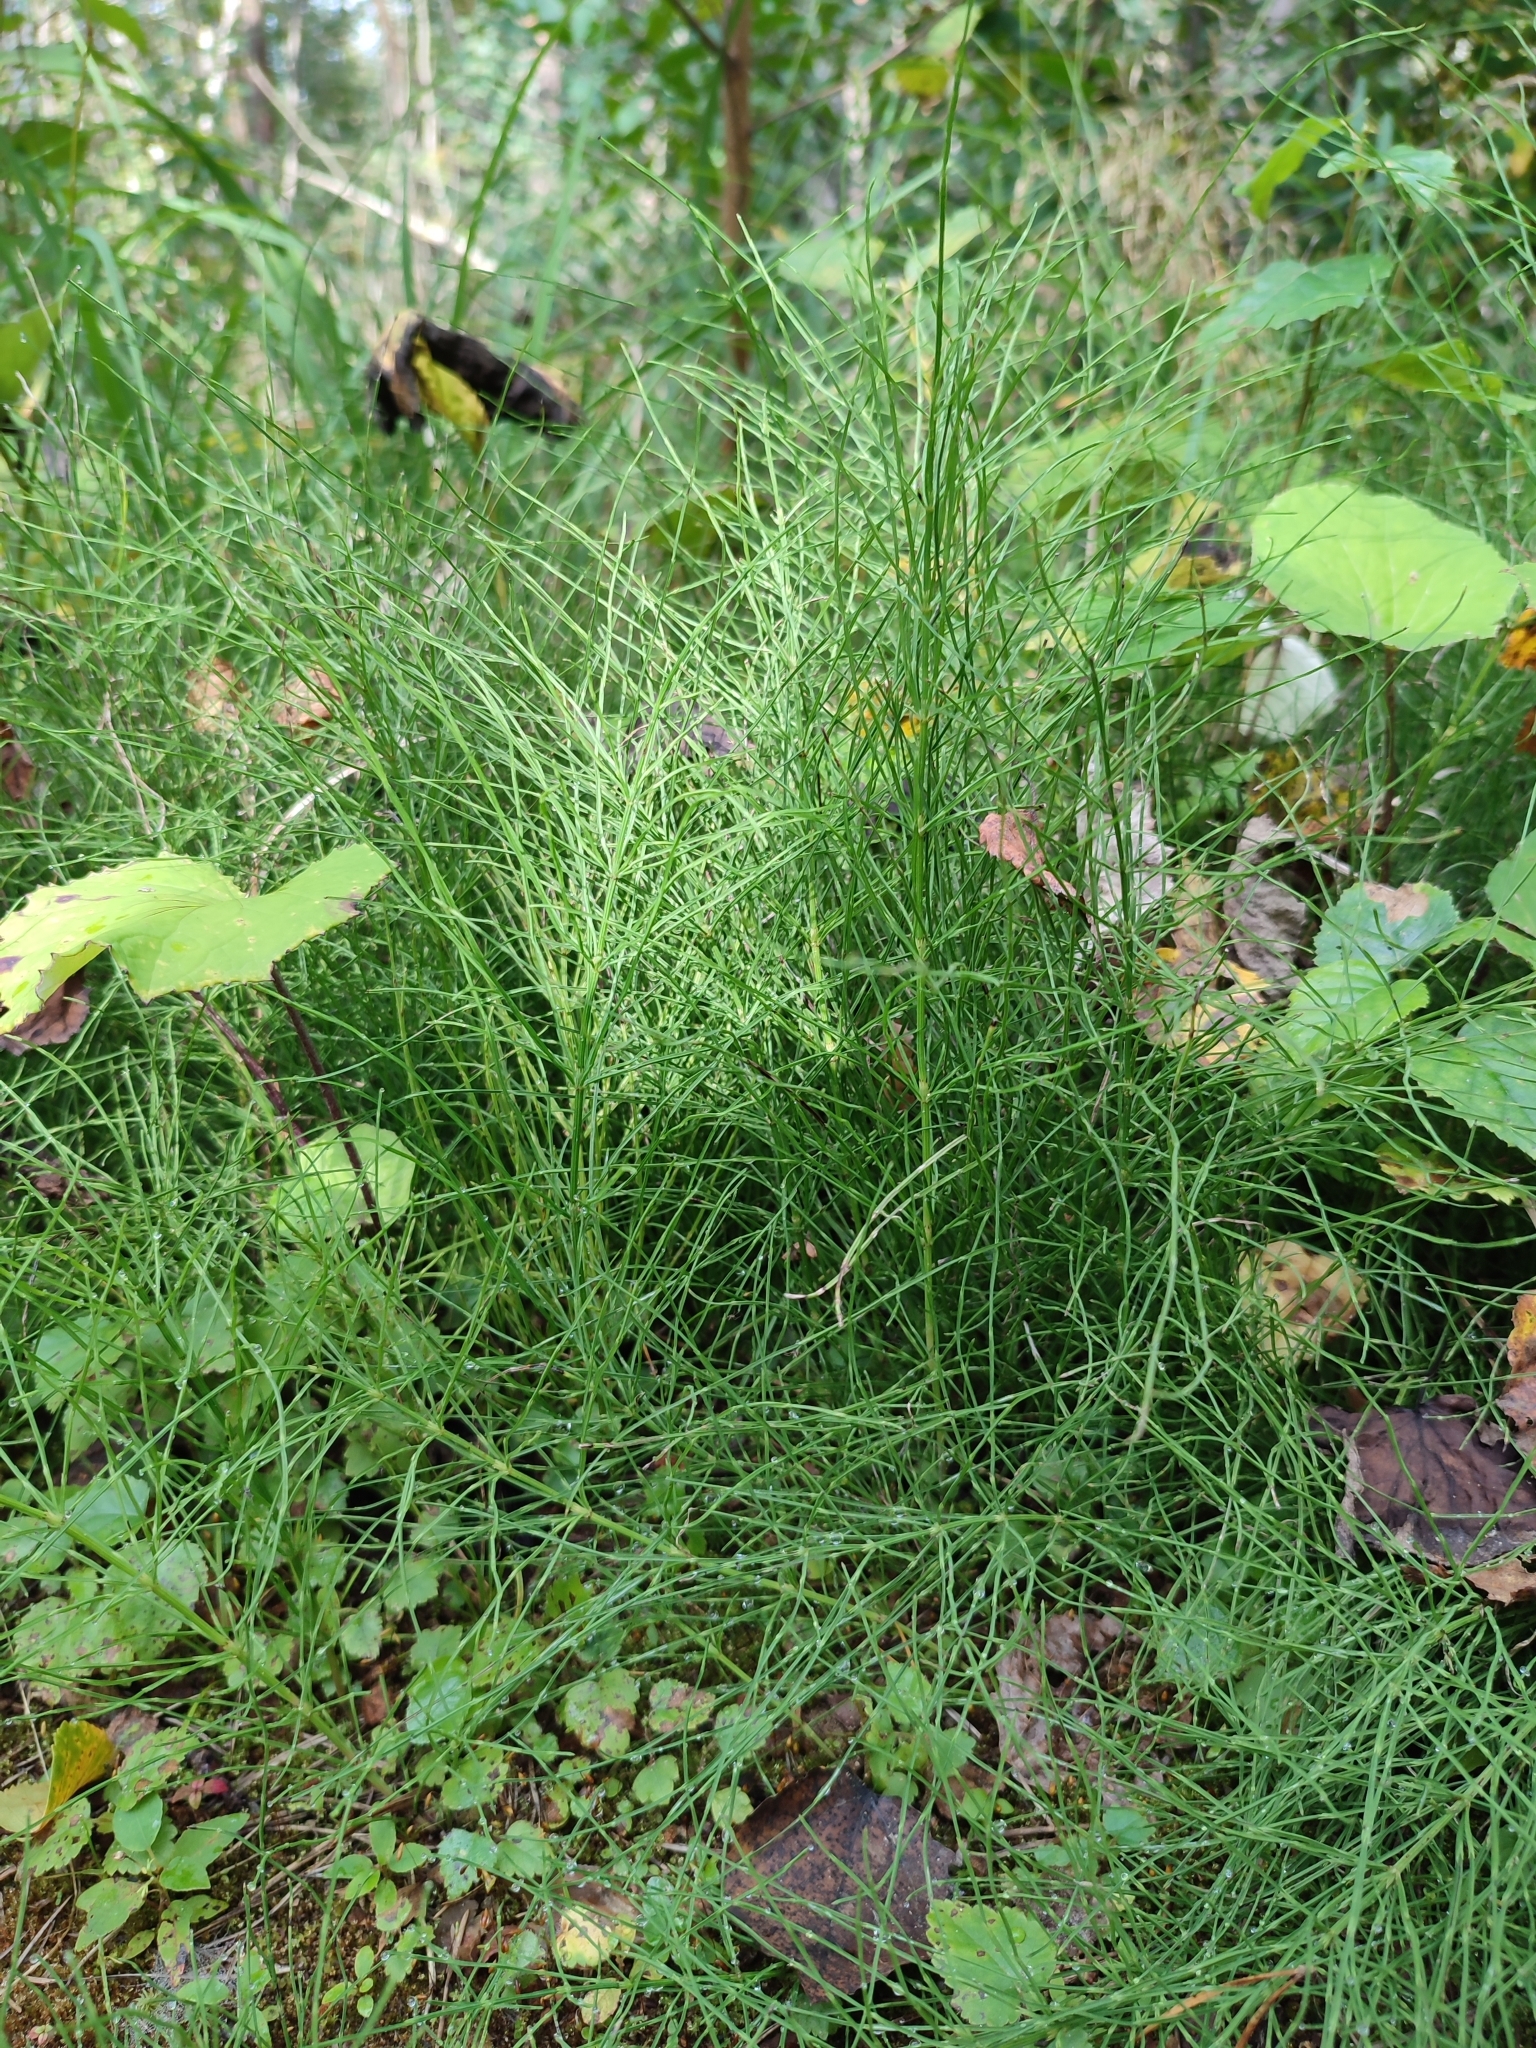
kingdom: Plantae
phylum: Tracheophyta
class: Polypodiopsida
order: Equisetales
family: Equisetaceae
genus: Equisetum
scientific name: Equisetum arvense
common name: Field horsetail
